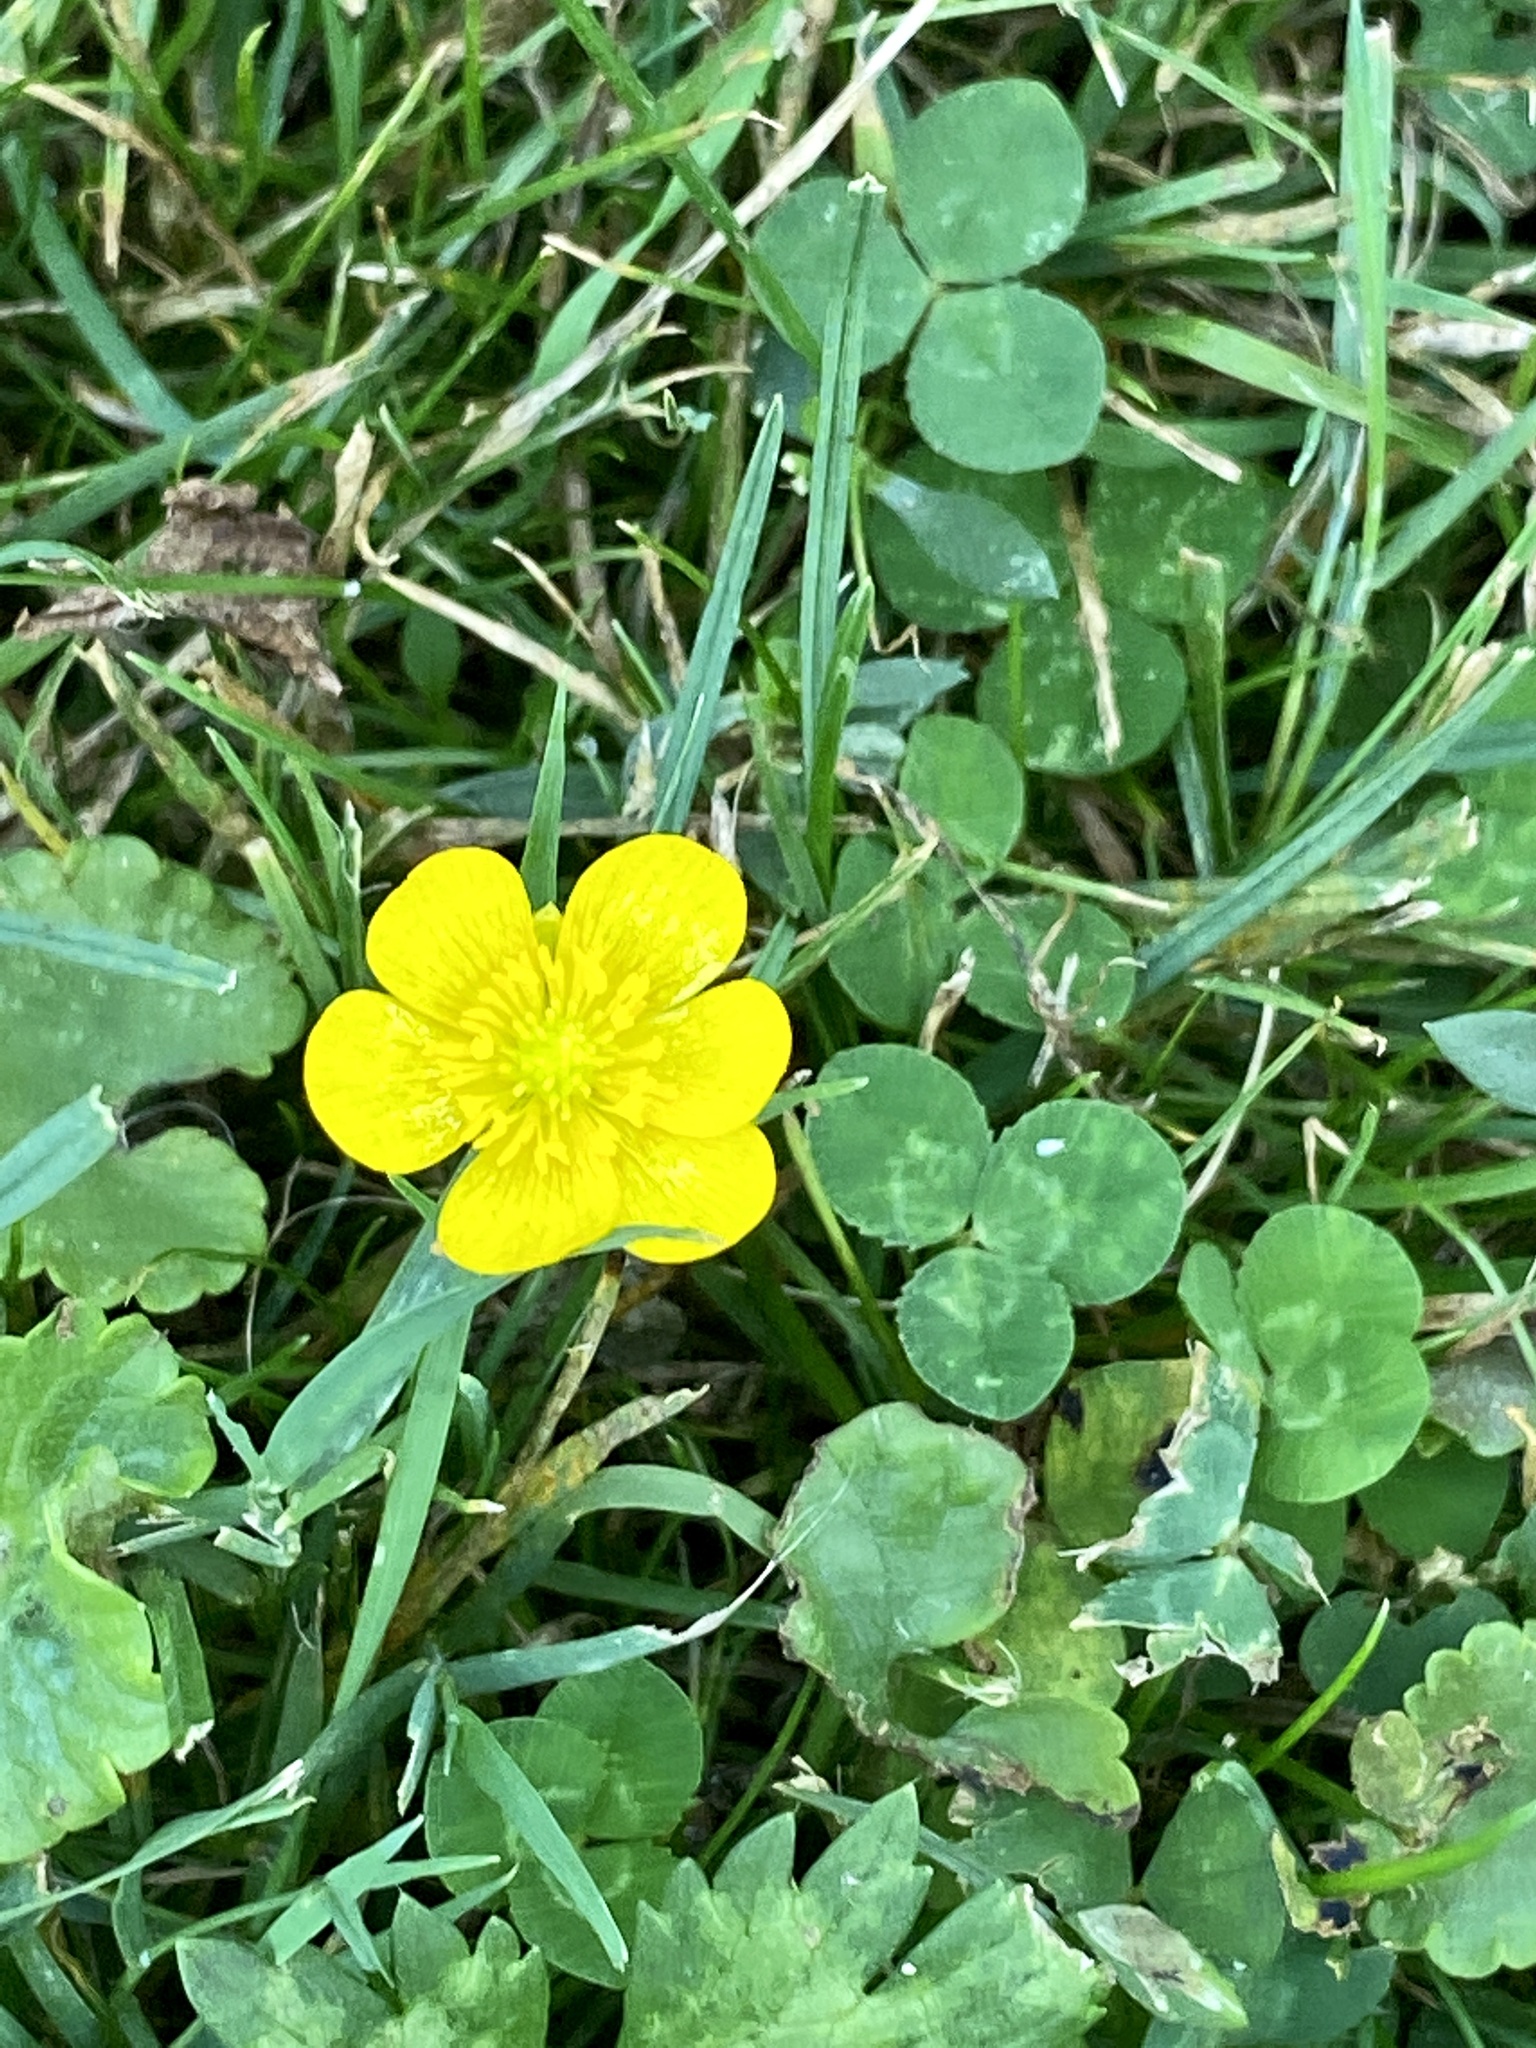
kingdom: Plantae
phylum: Tracheophyta
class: Magnoliopsida
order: Ranunculales
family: Ranunculaceae
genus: Ranunculus
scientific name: Ranunculus repens
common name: Creeping buttercup
